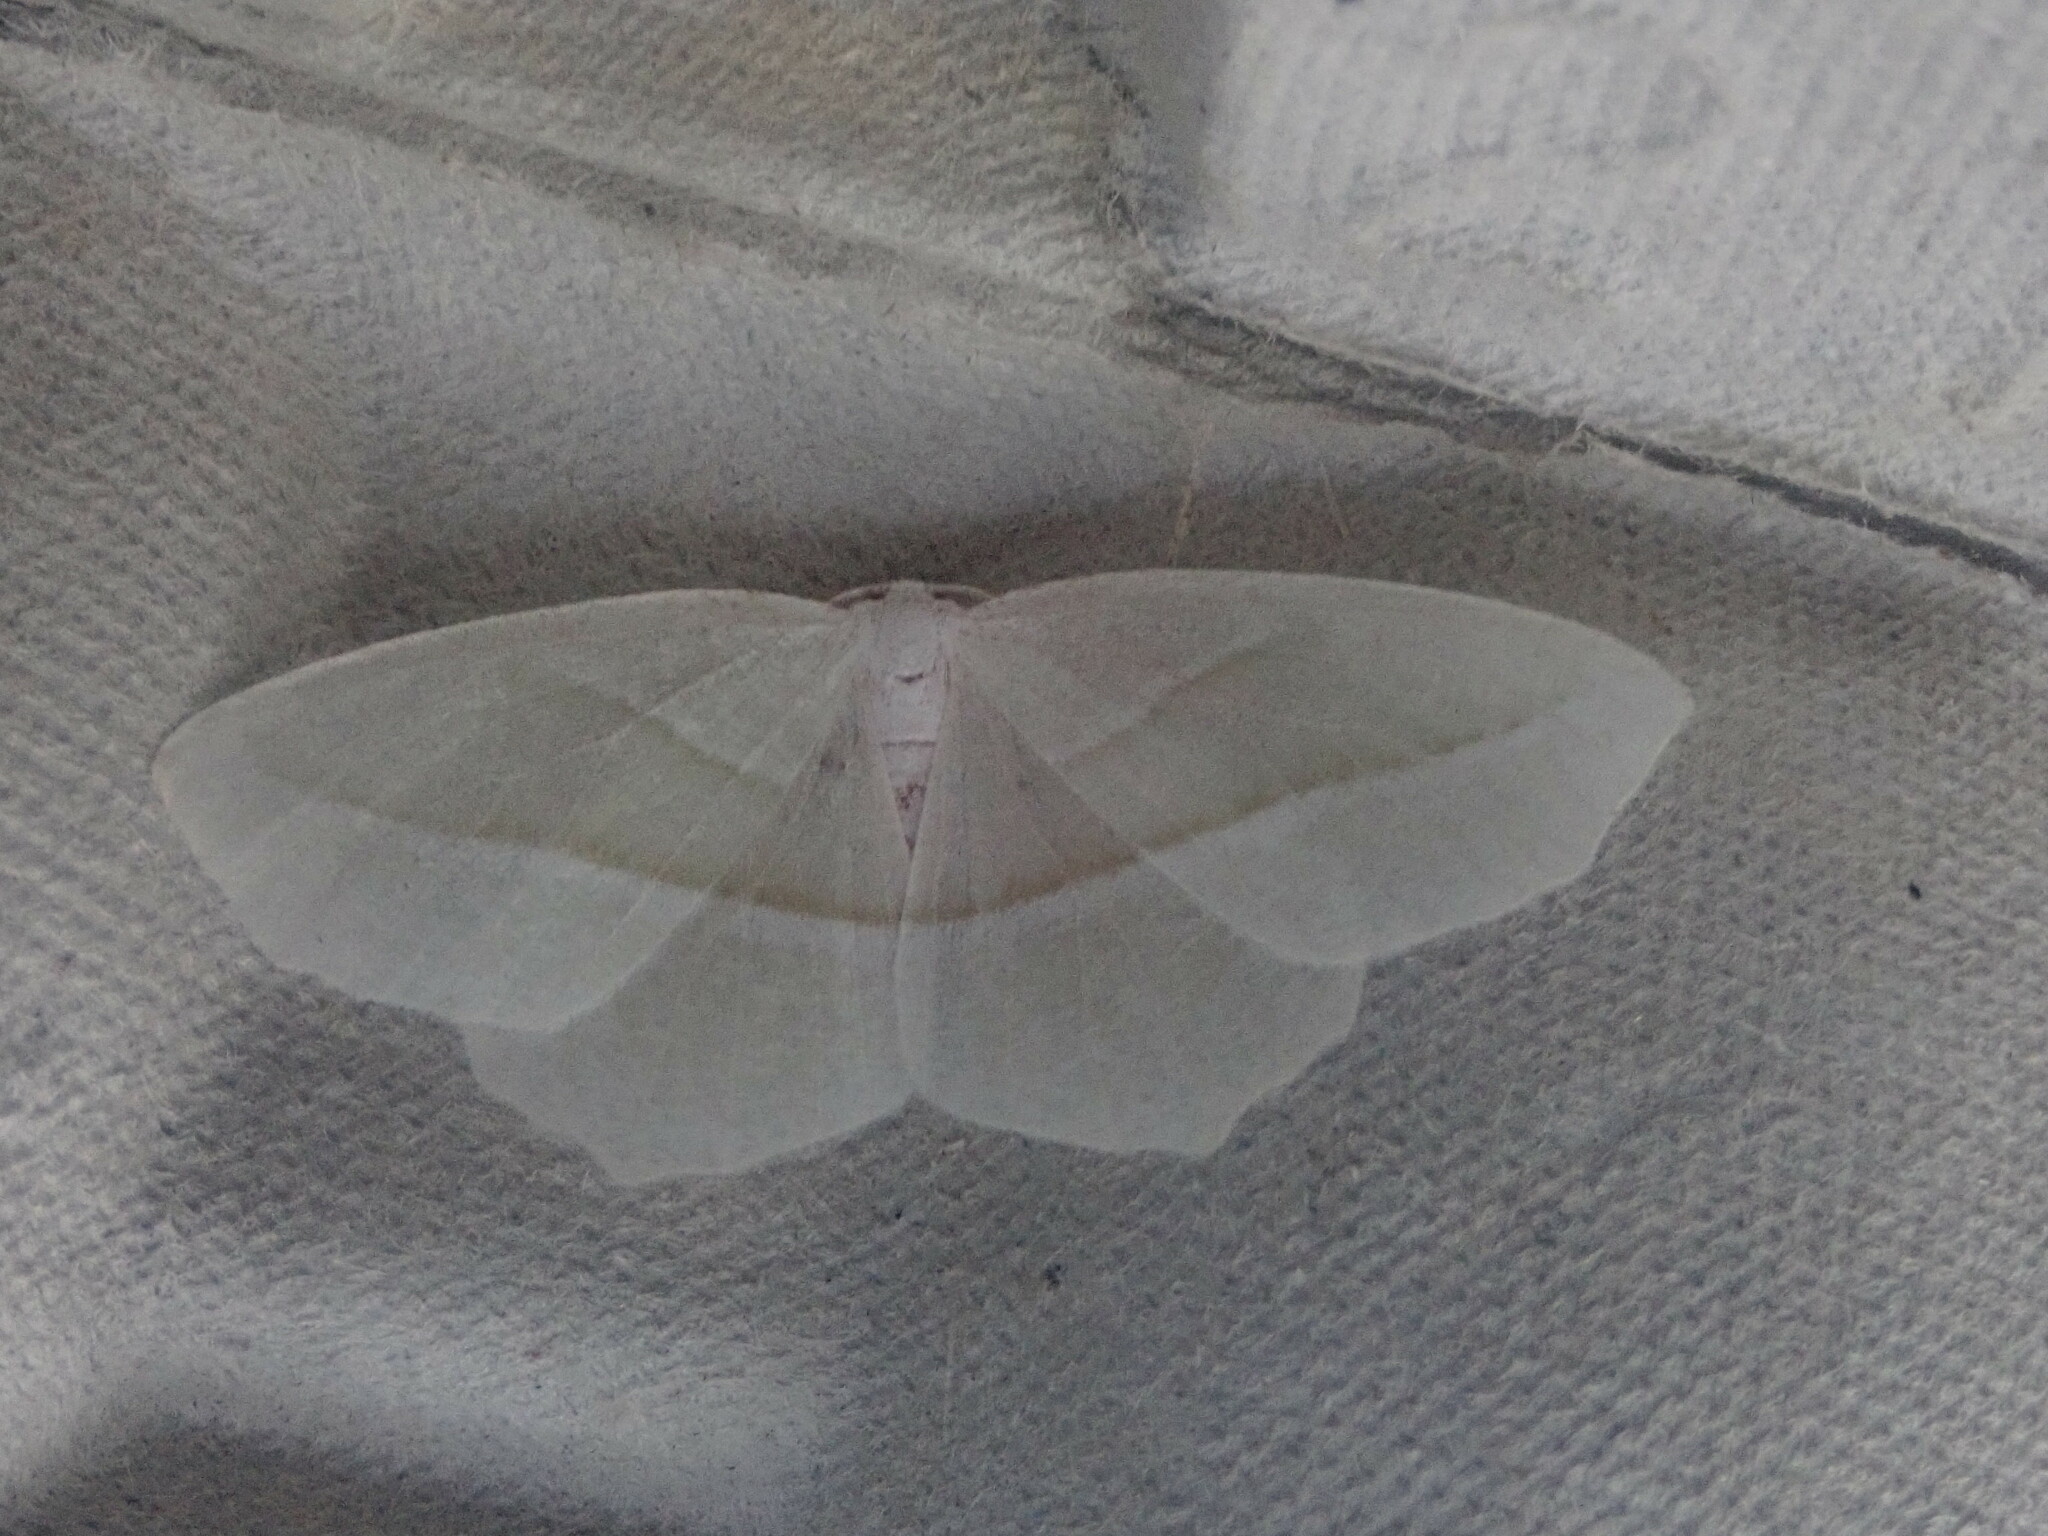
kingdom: Animalia
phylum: Arthropoda
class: Insecta
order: Lepidoptera
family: Geometridae
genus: Campaea
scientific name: Campaea perlata
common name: Fringed looper
